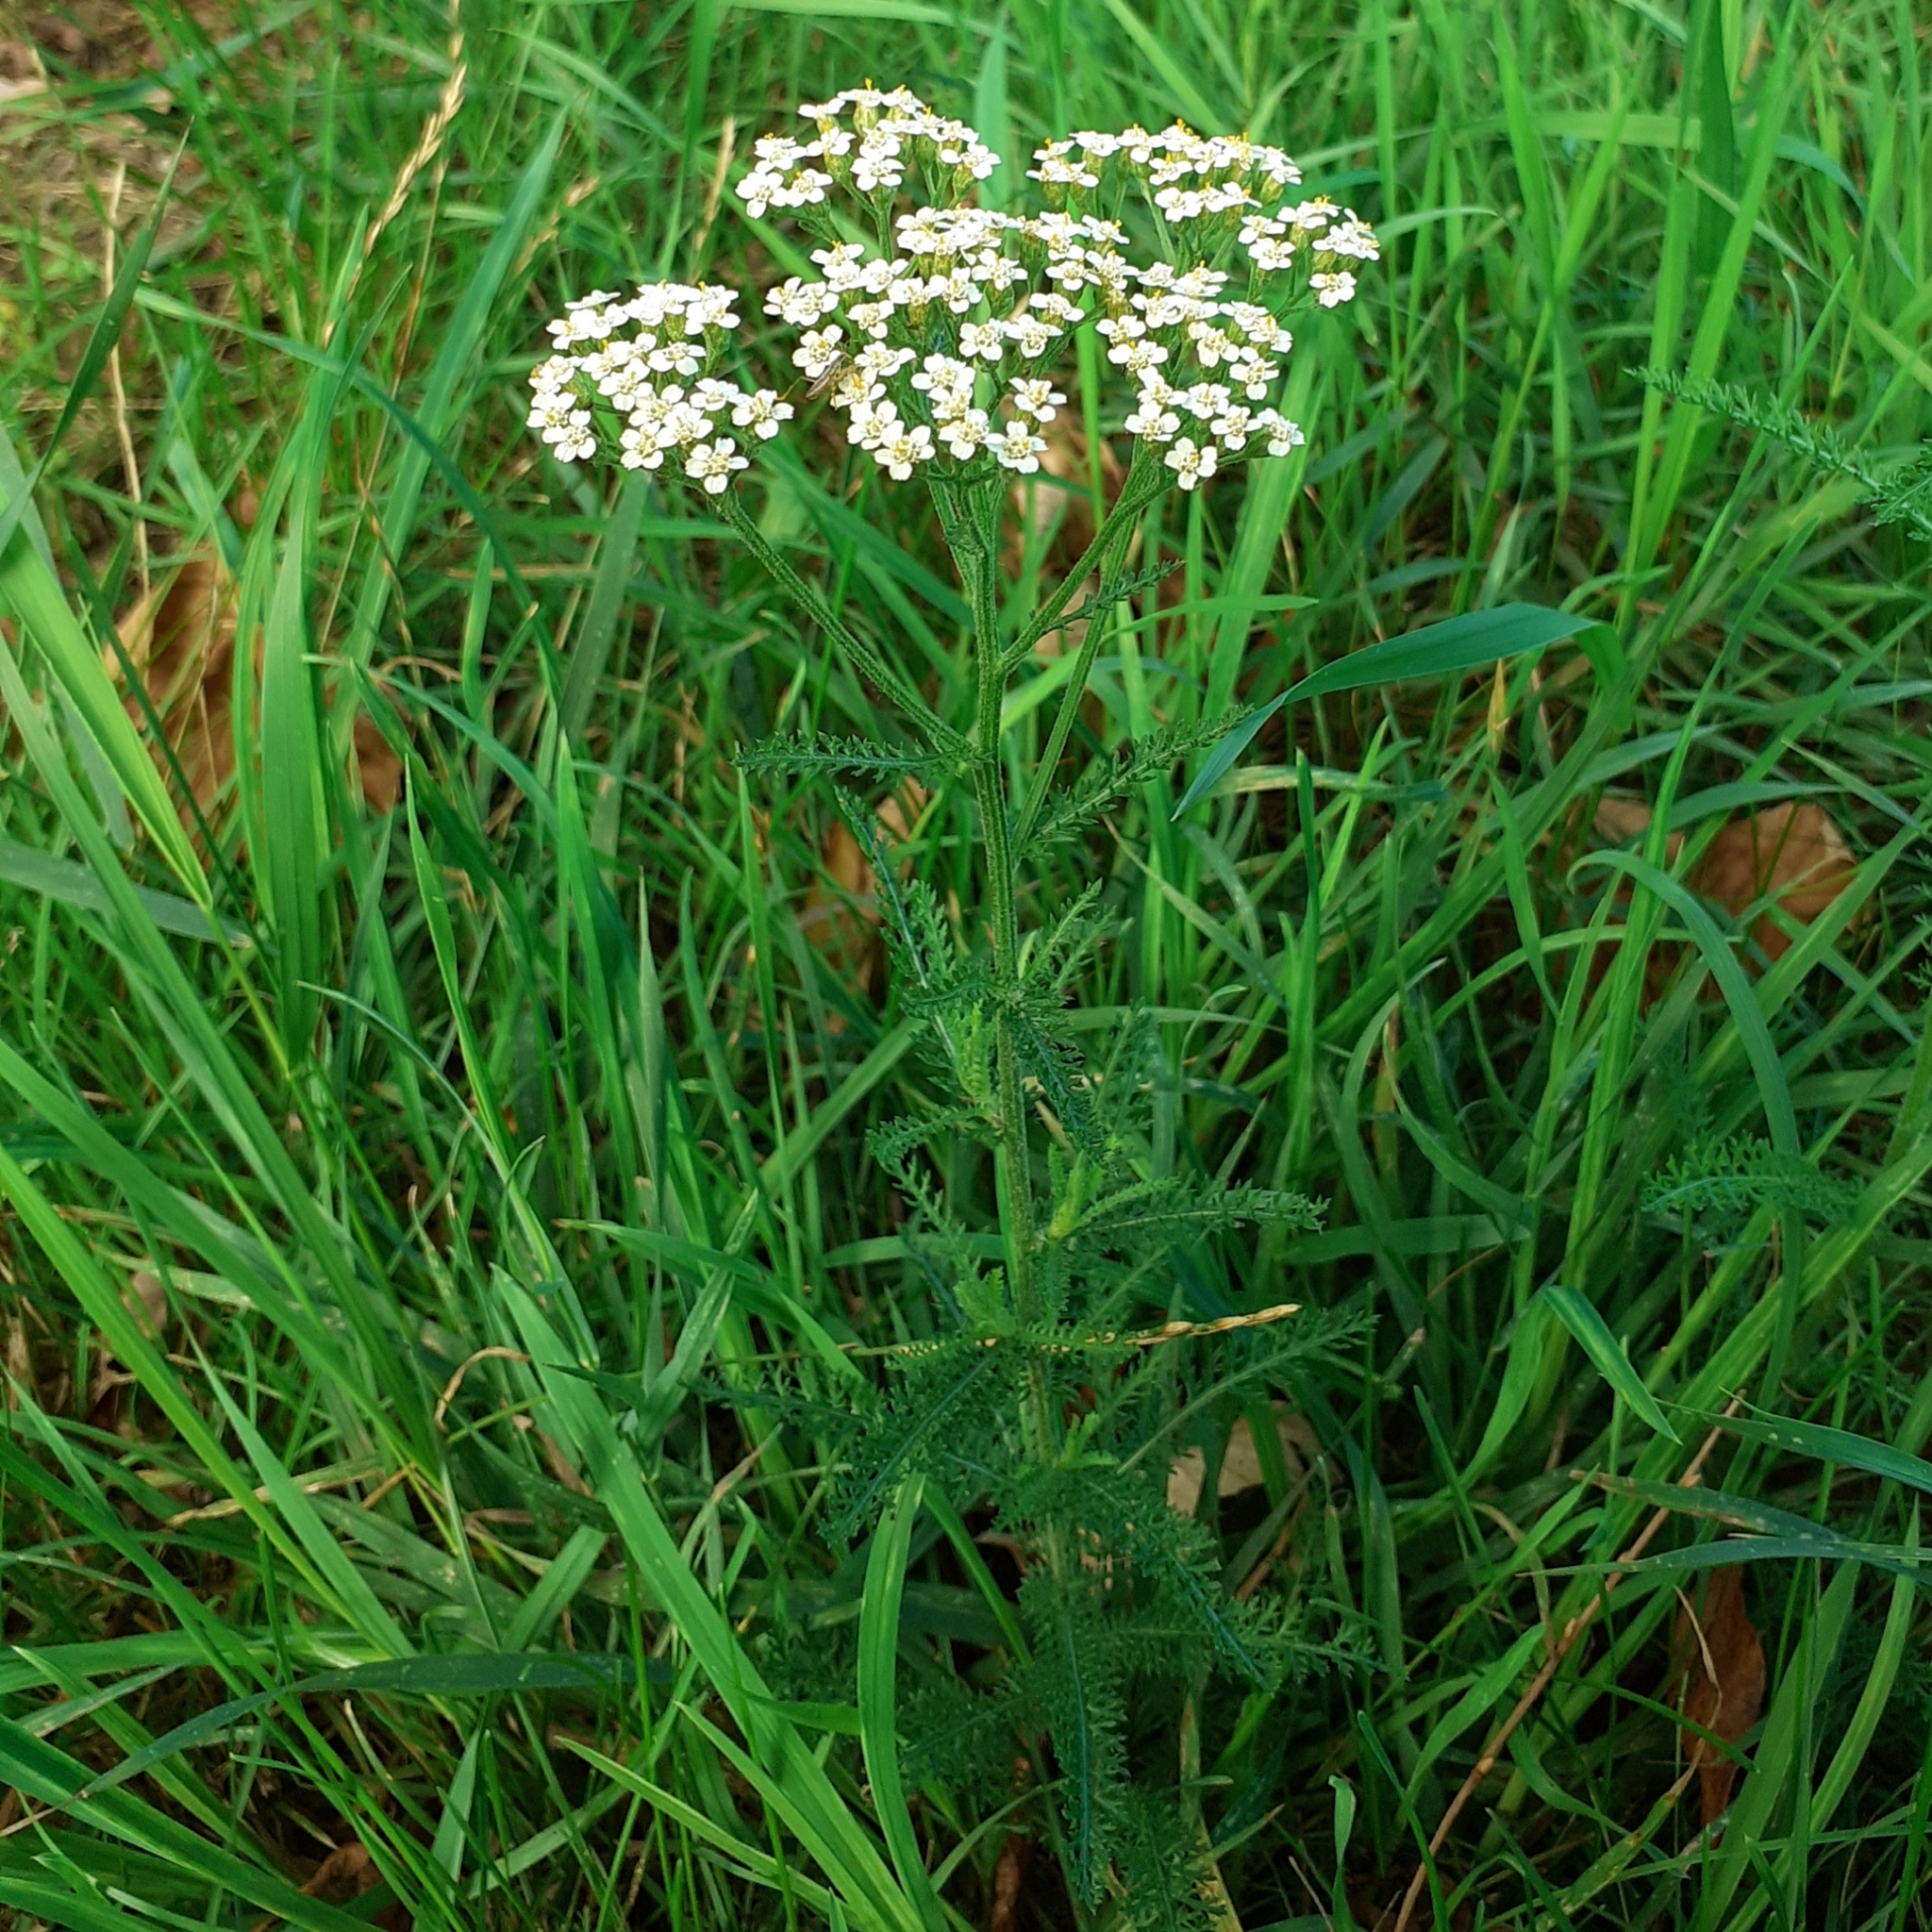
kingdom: Plantae
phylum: Tracheophyta
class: Magnoliopsida
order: Asterales
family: Asteraceae
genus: Achillea
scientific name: Achillea millefolium
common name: Yarrow
